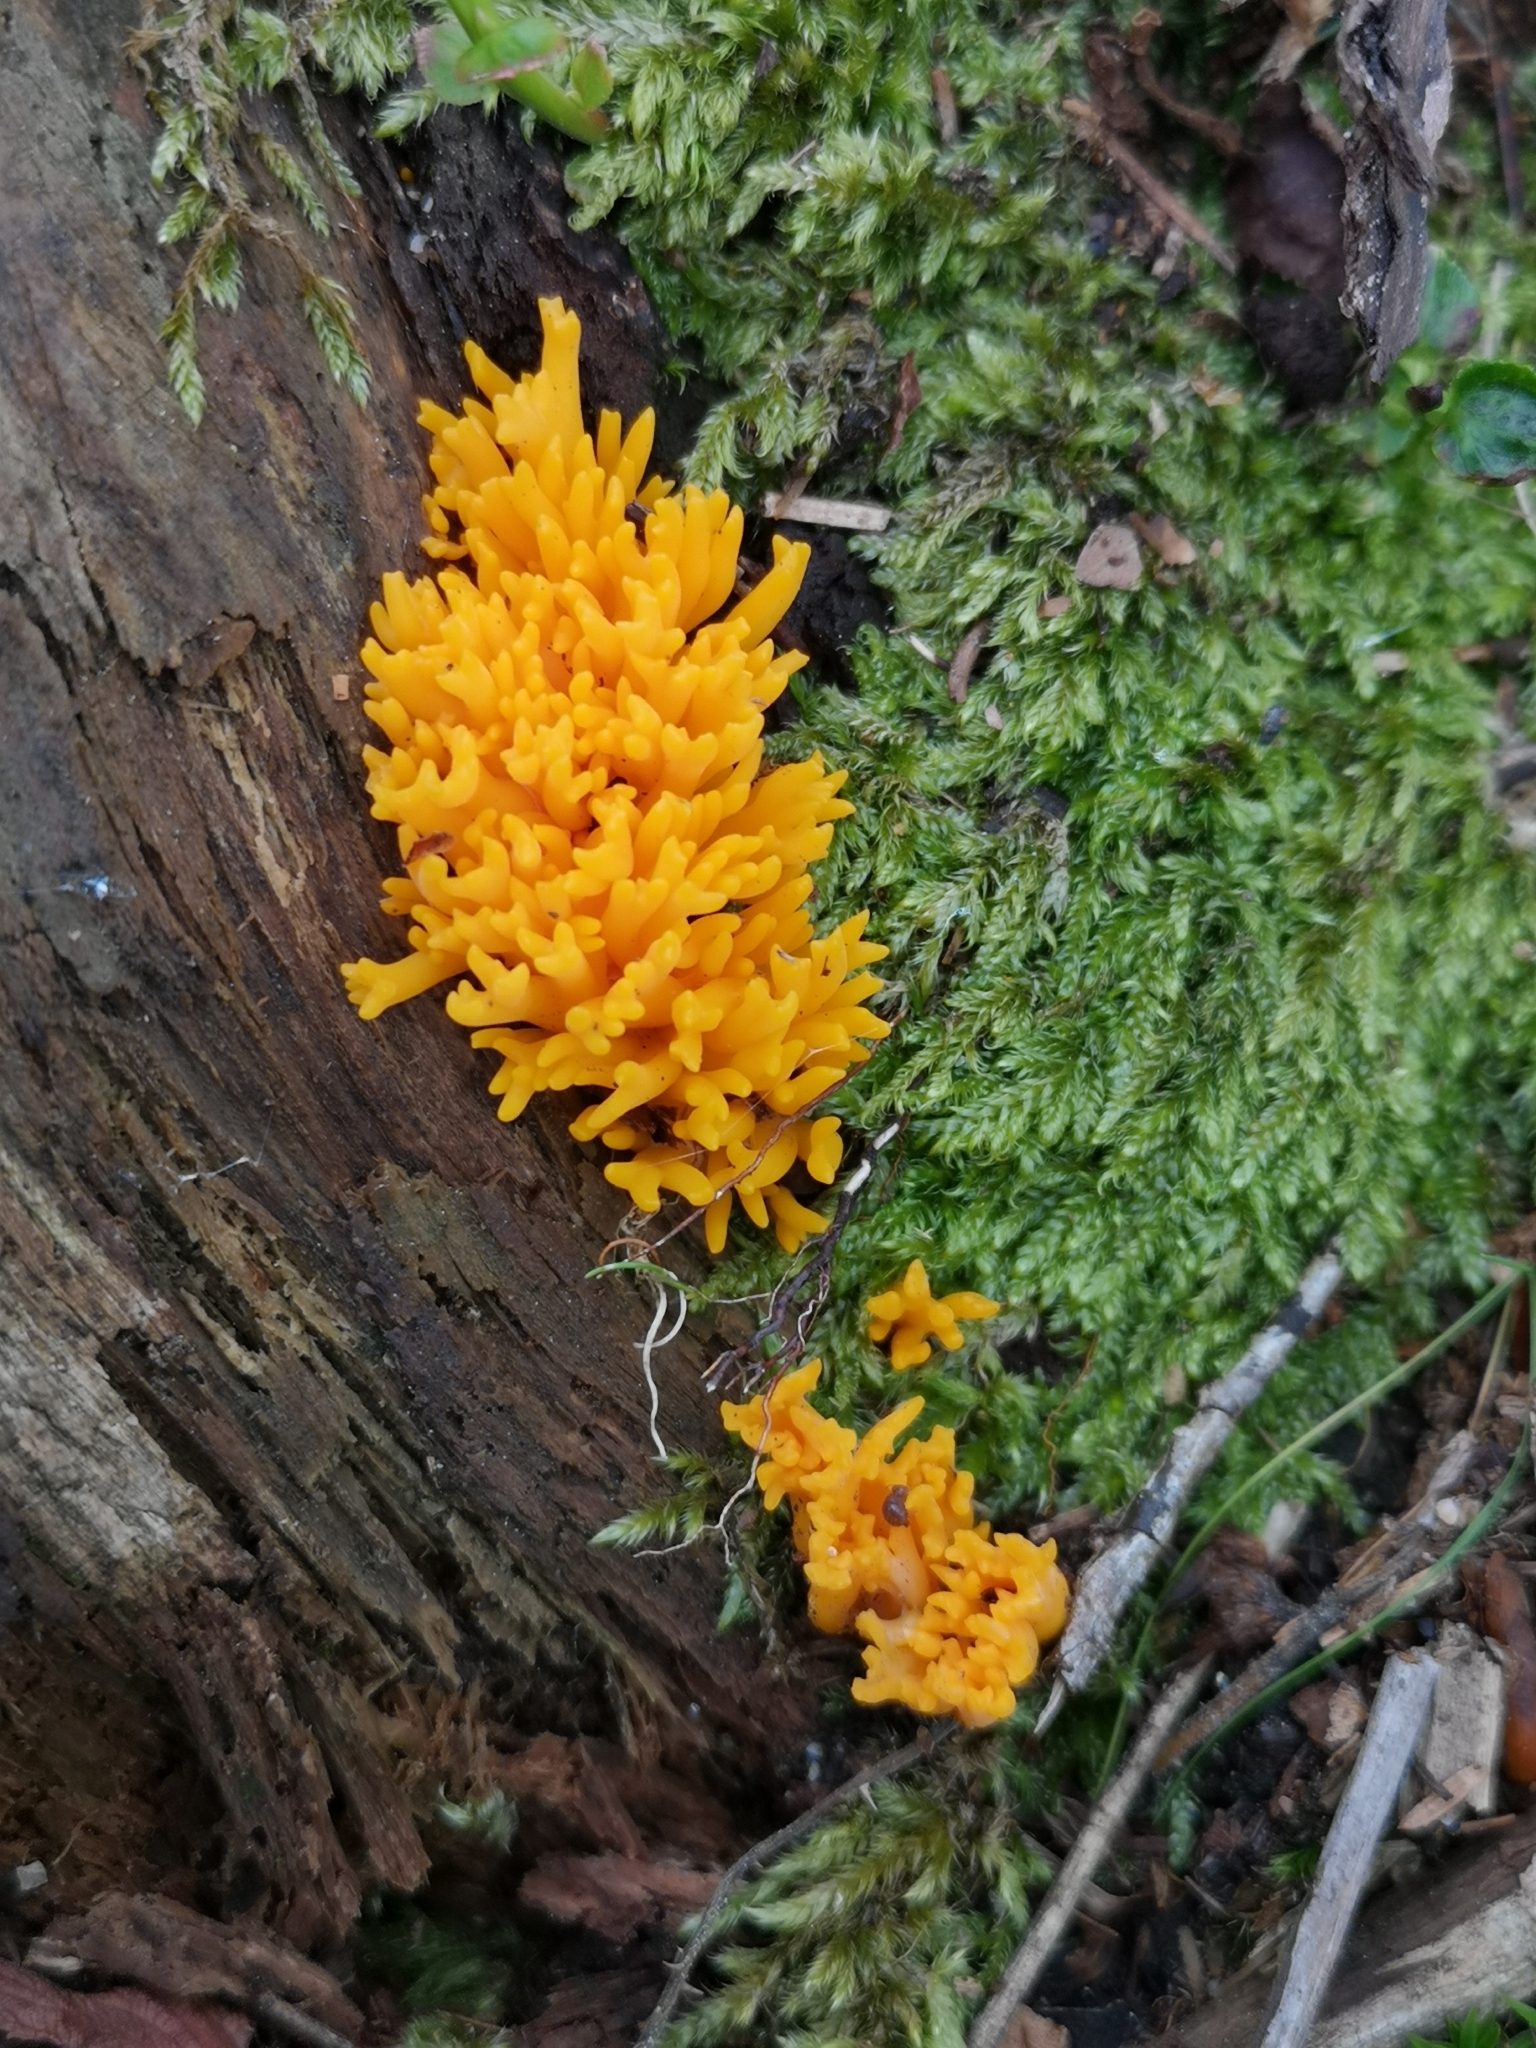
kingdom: Fungi
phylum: Basidiomycota
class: Dacrymycetes
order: Dacrymycetales
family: Dacrymycetaceae
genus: Calocera
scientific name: Calocera viscosa
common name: Yellow stagshorn
